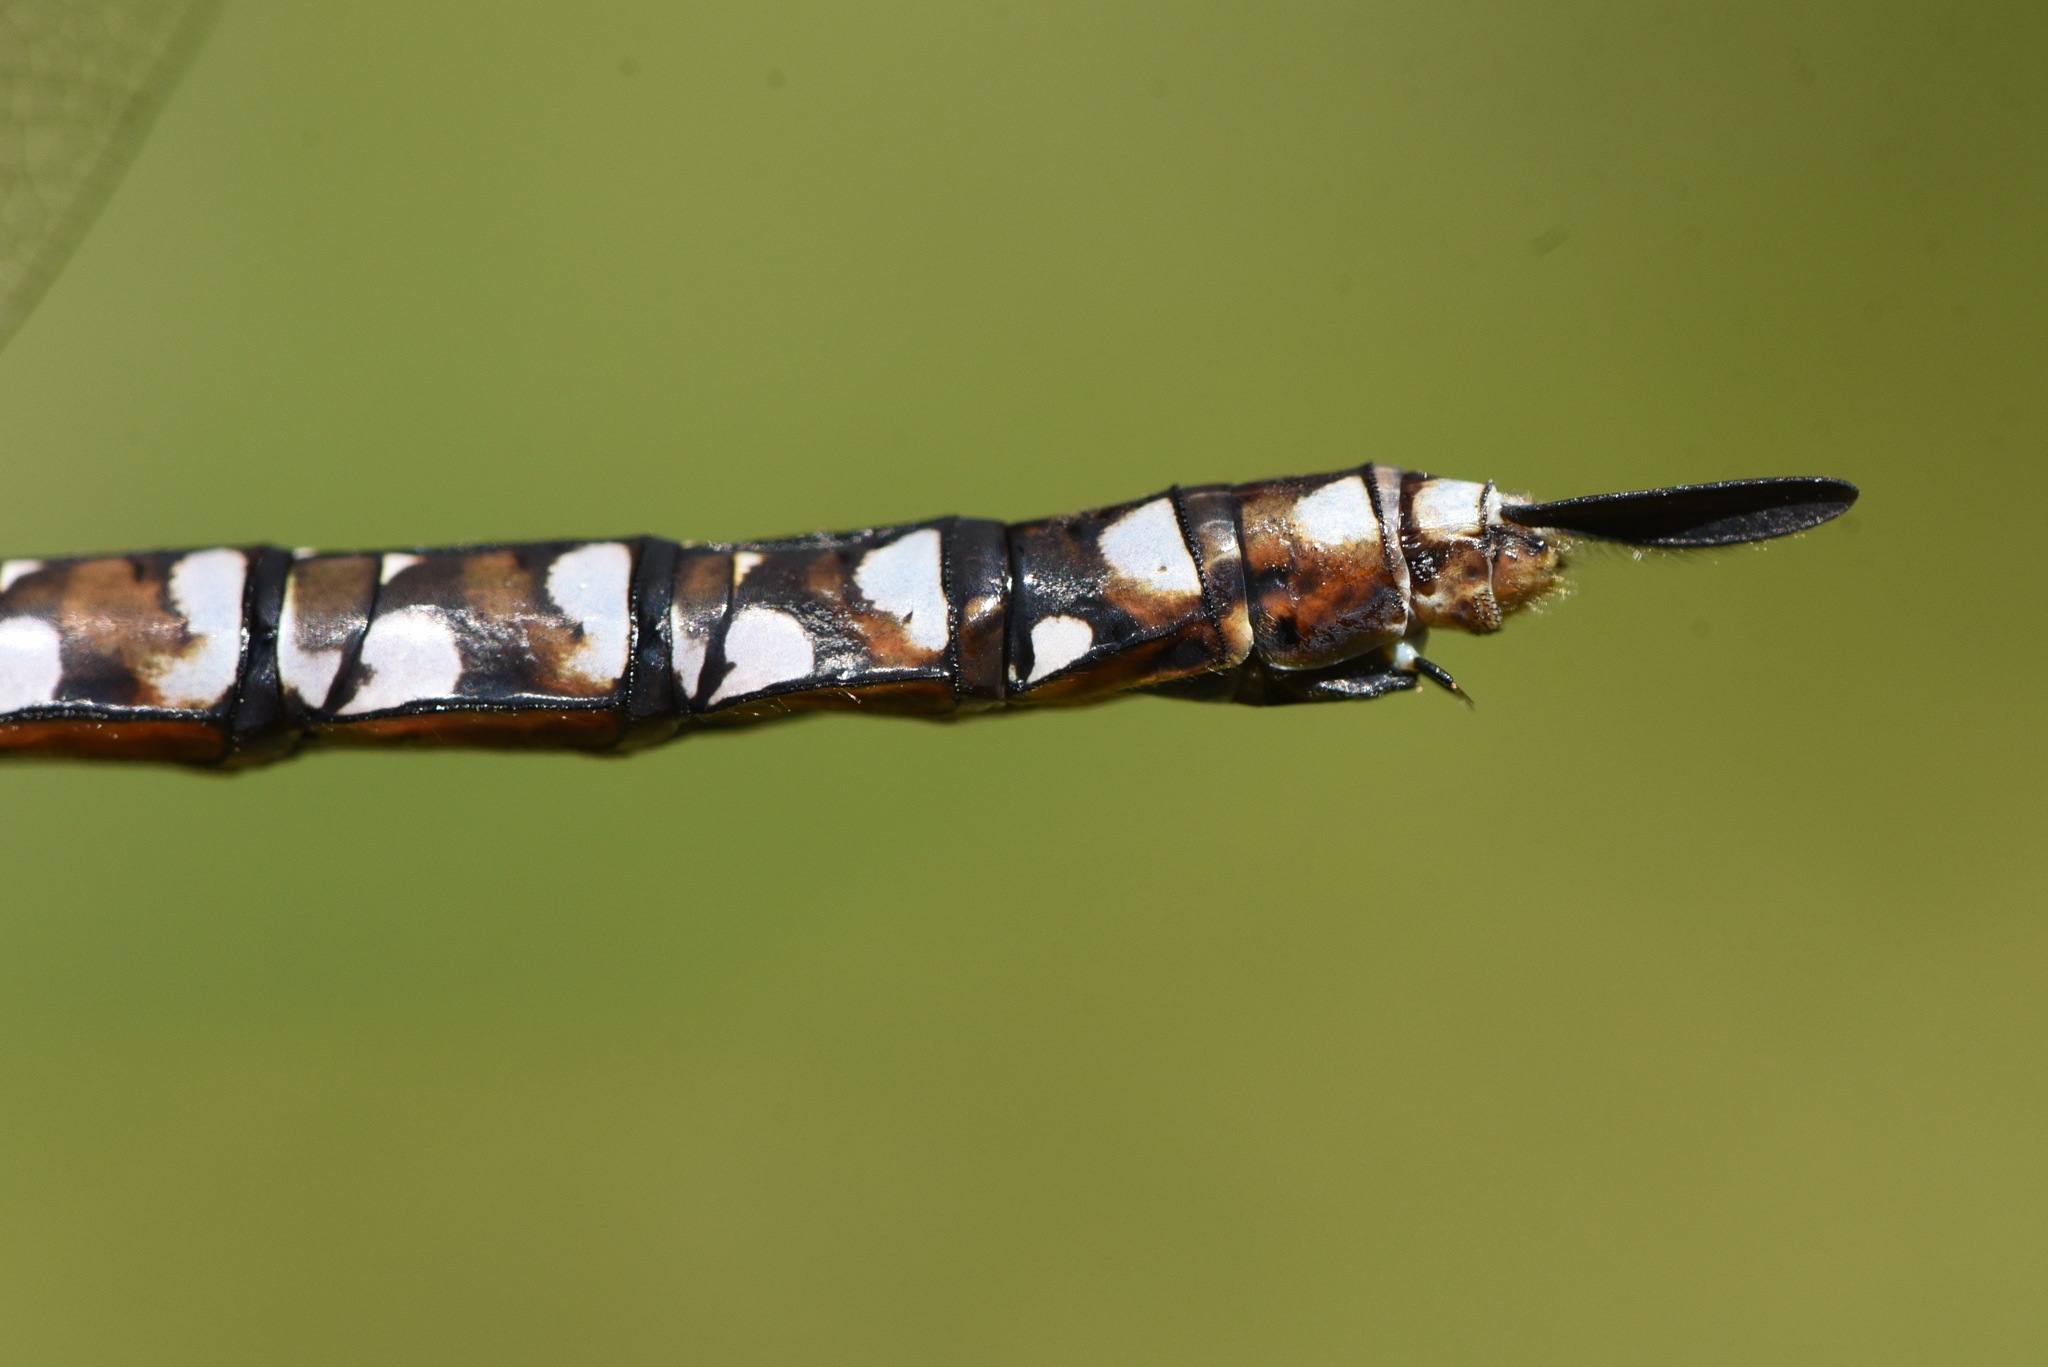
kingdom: Animalia
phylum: Arthropoda
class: Insecta
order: Odonata
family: Aeshnidae
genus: Aeshna
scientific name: Aeshna interrupta
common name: Variable darner
